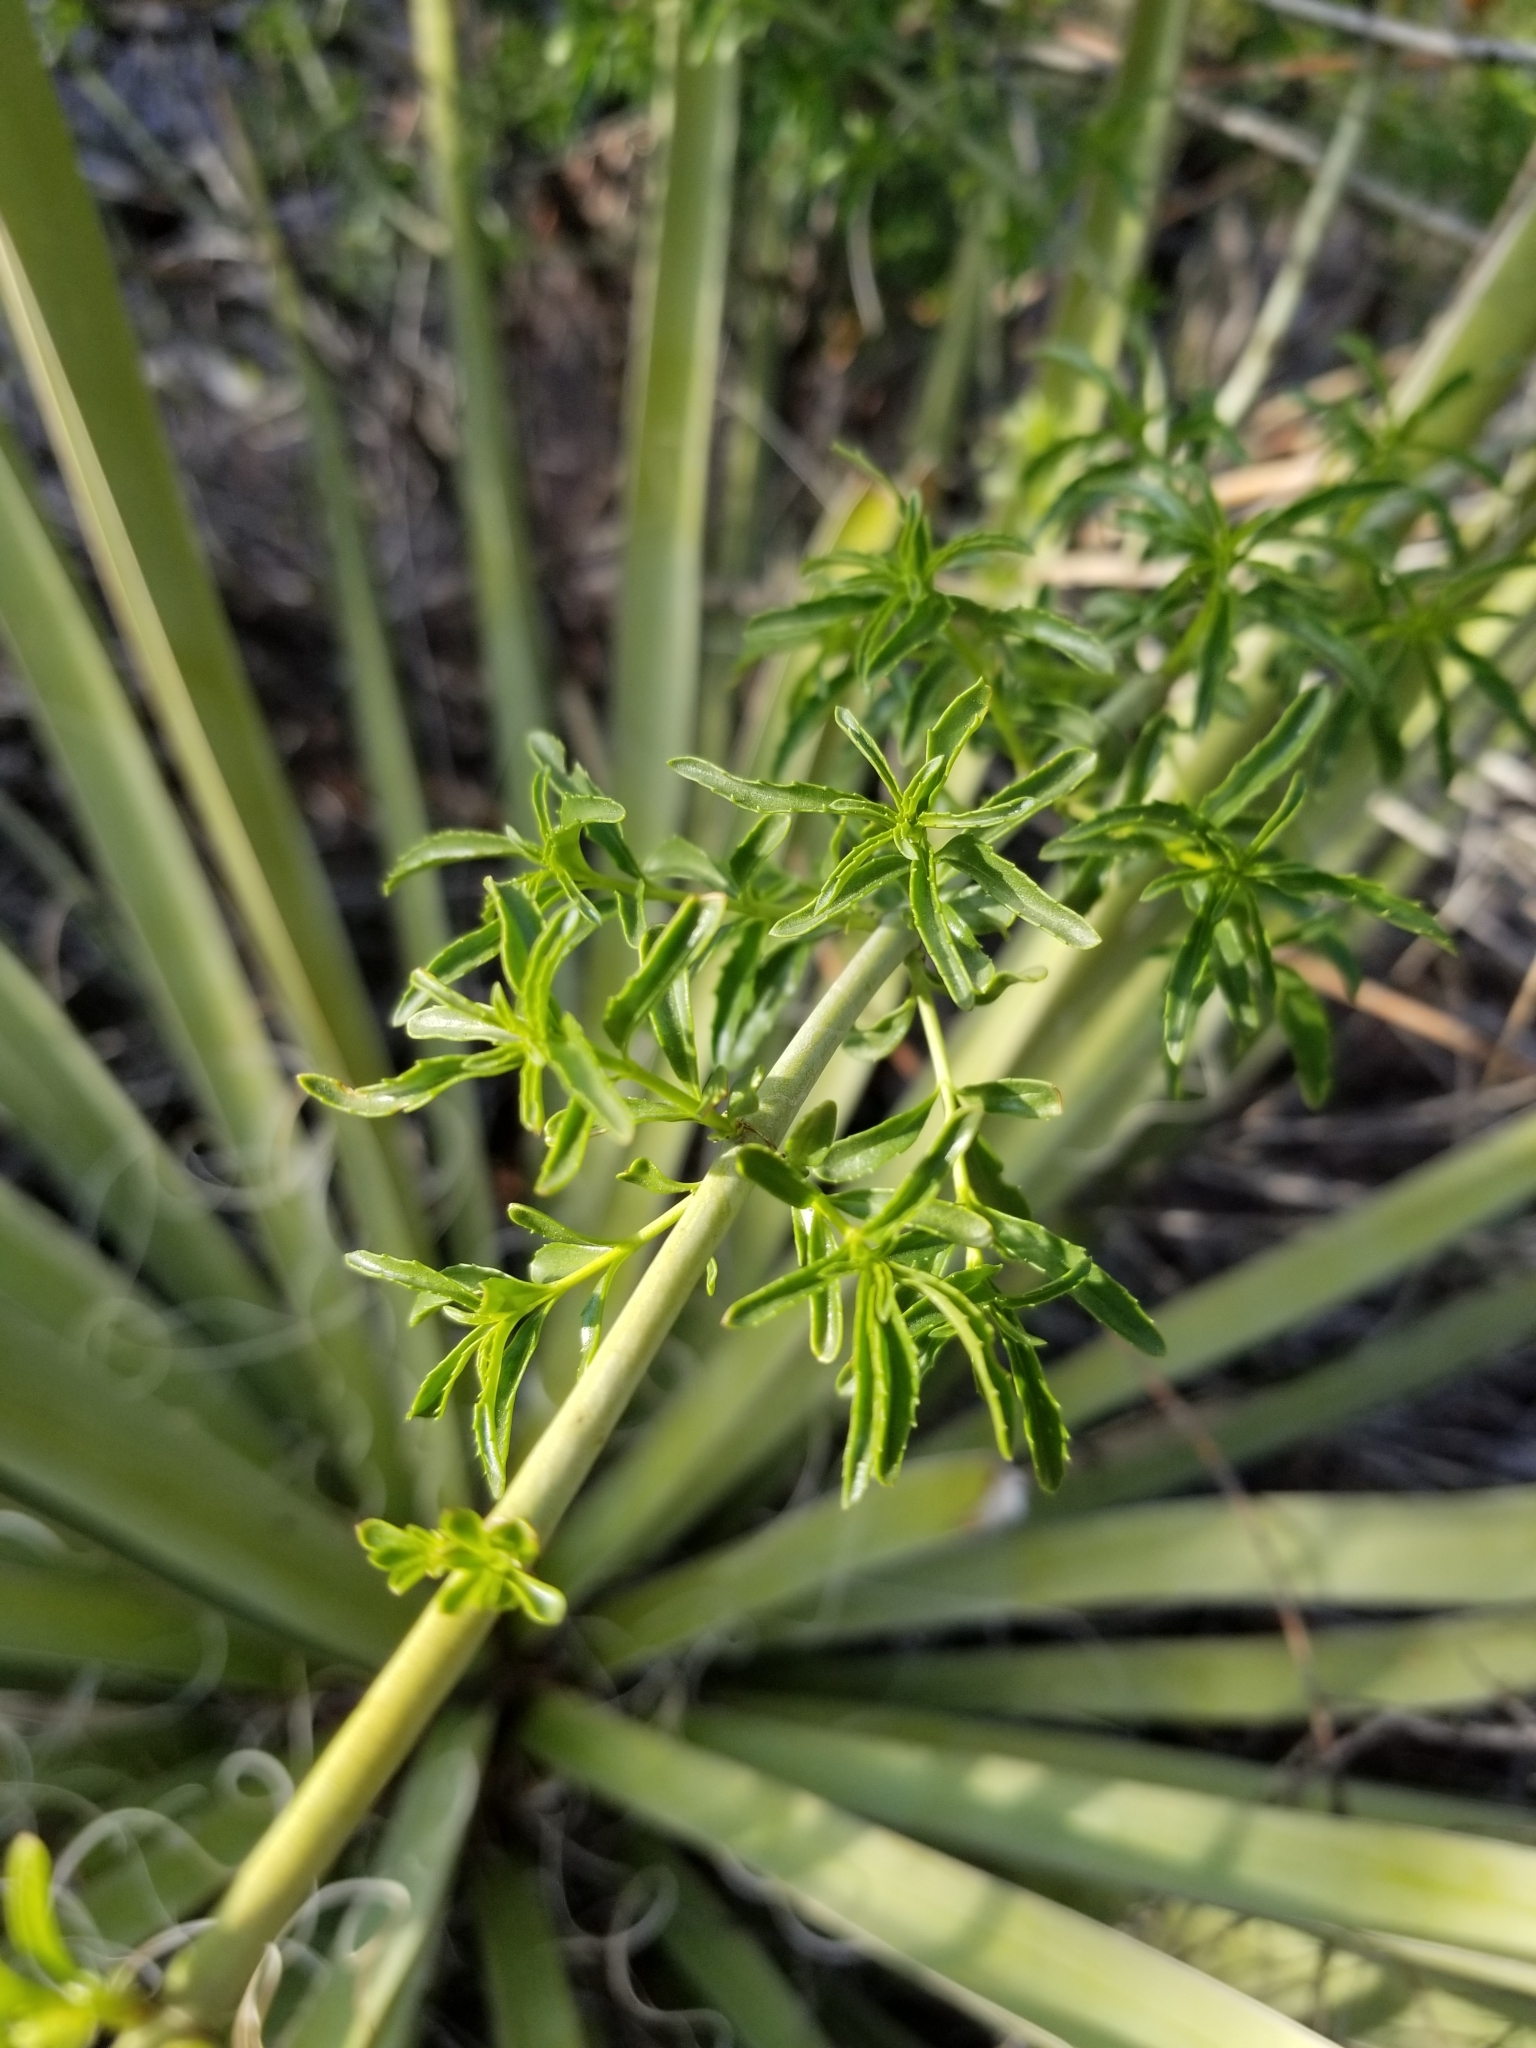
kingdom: Plantae
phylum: Tracheophyta
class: Magnoliopsida
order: Lamiales
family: Plantaginaceae
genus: Keckiella
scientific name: Keckiella ternata
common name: Scarlet keckiella
